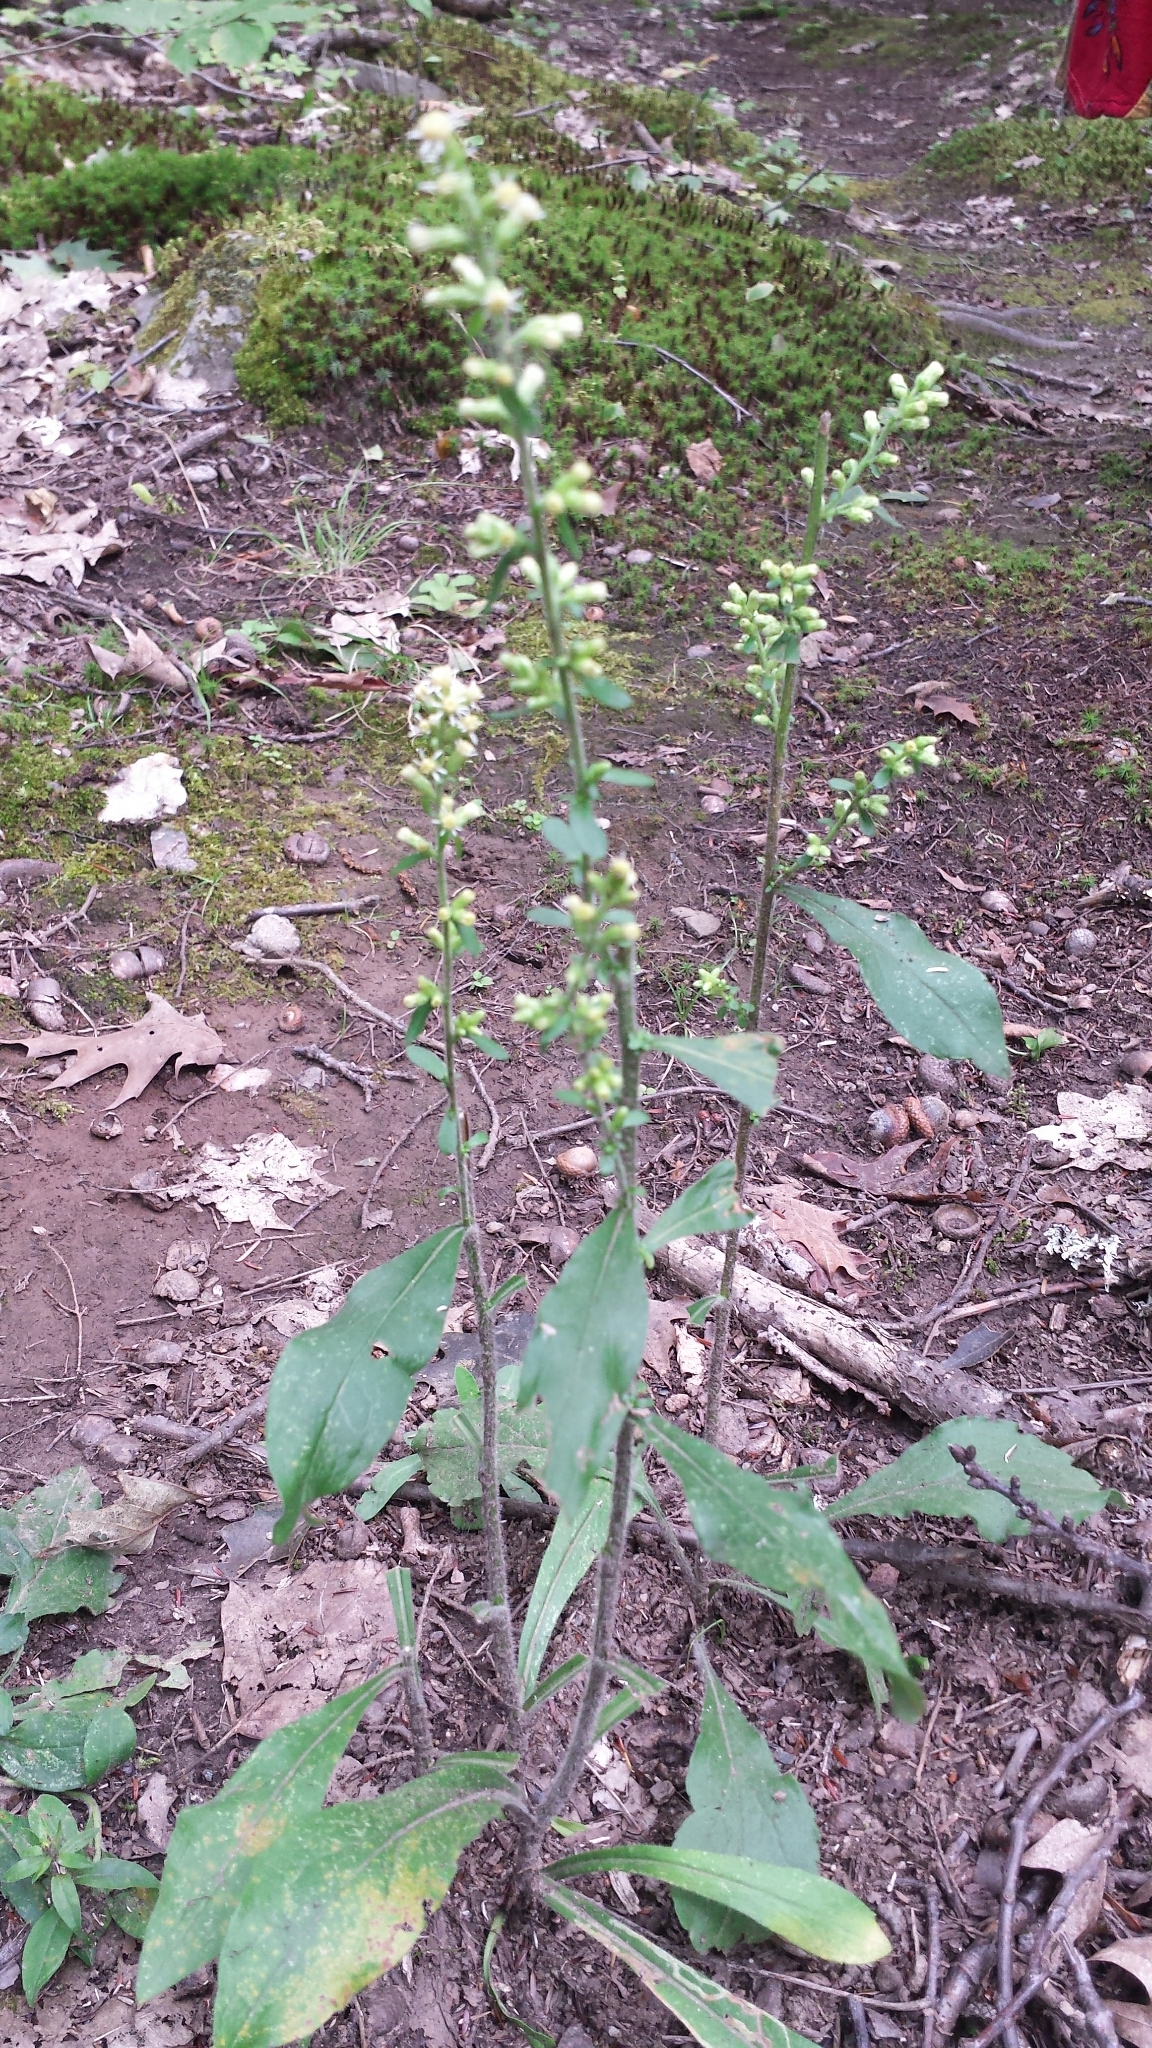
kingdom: Plantae
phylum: Tracheophyta
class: Magnoliopsida
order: Asterales
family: Asteraceae
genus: Solidago
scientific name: Solidago bicolor
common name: Silverrod
